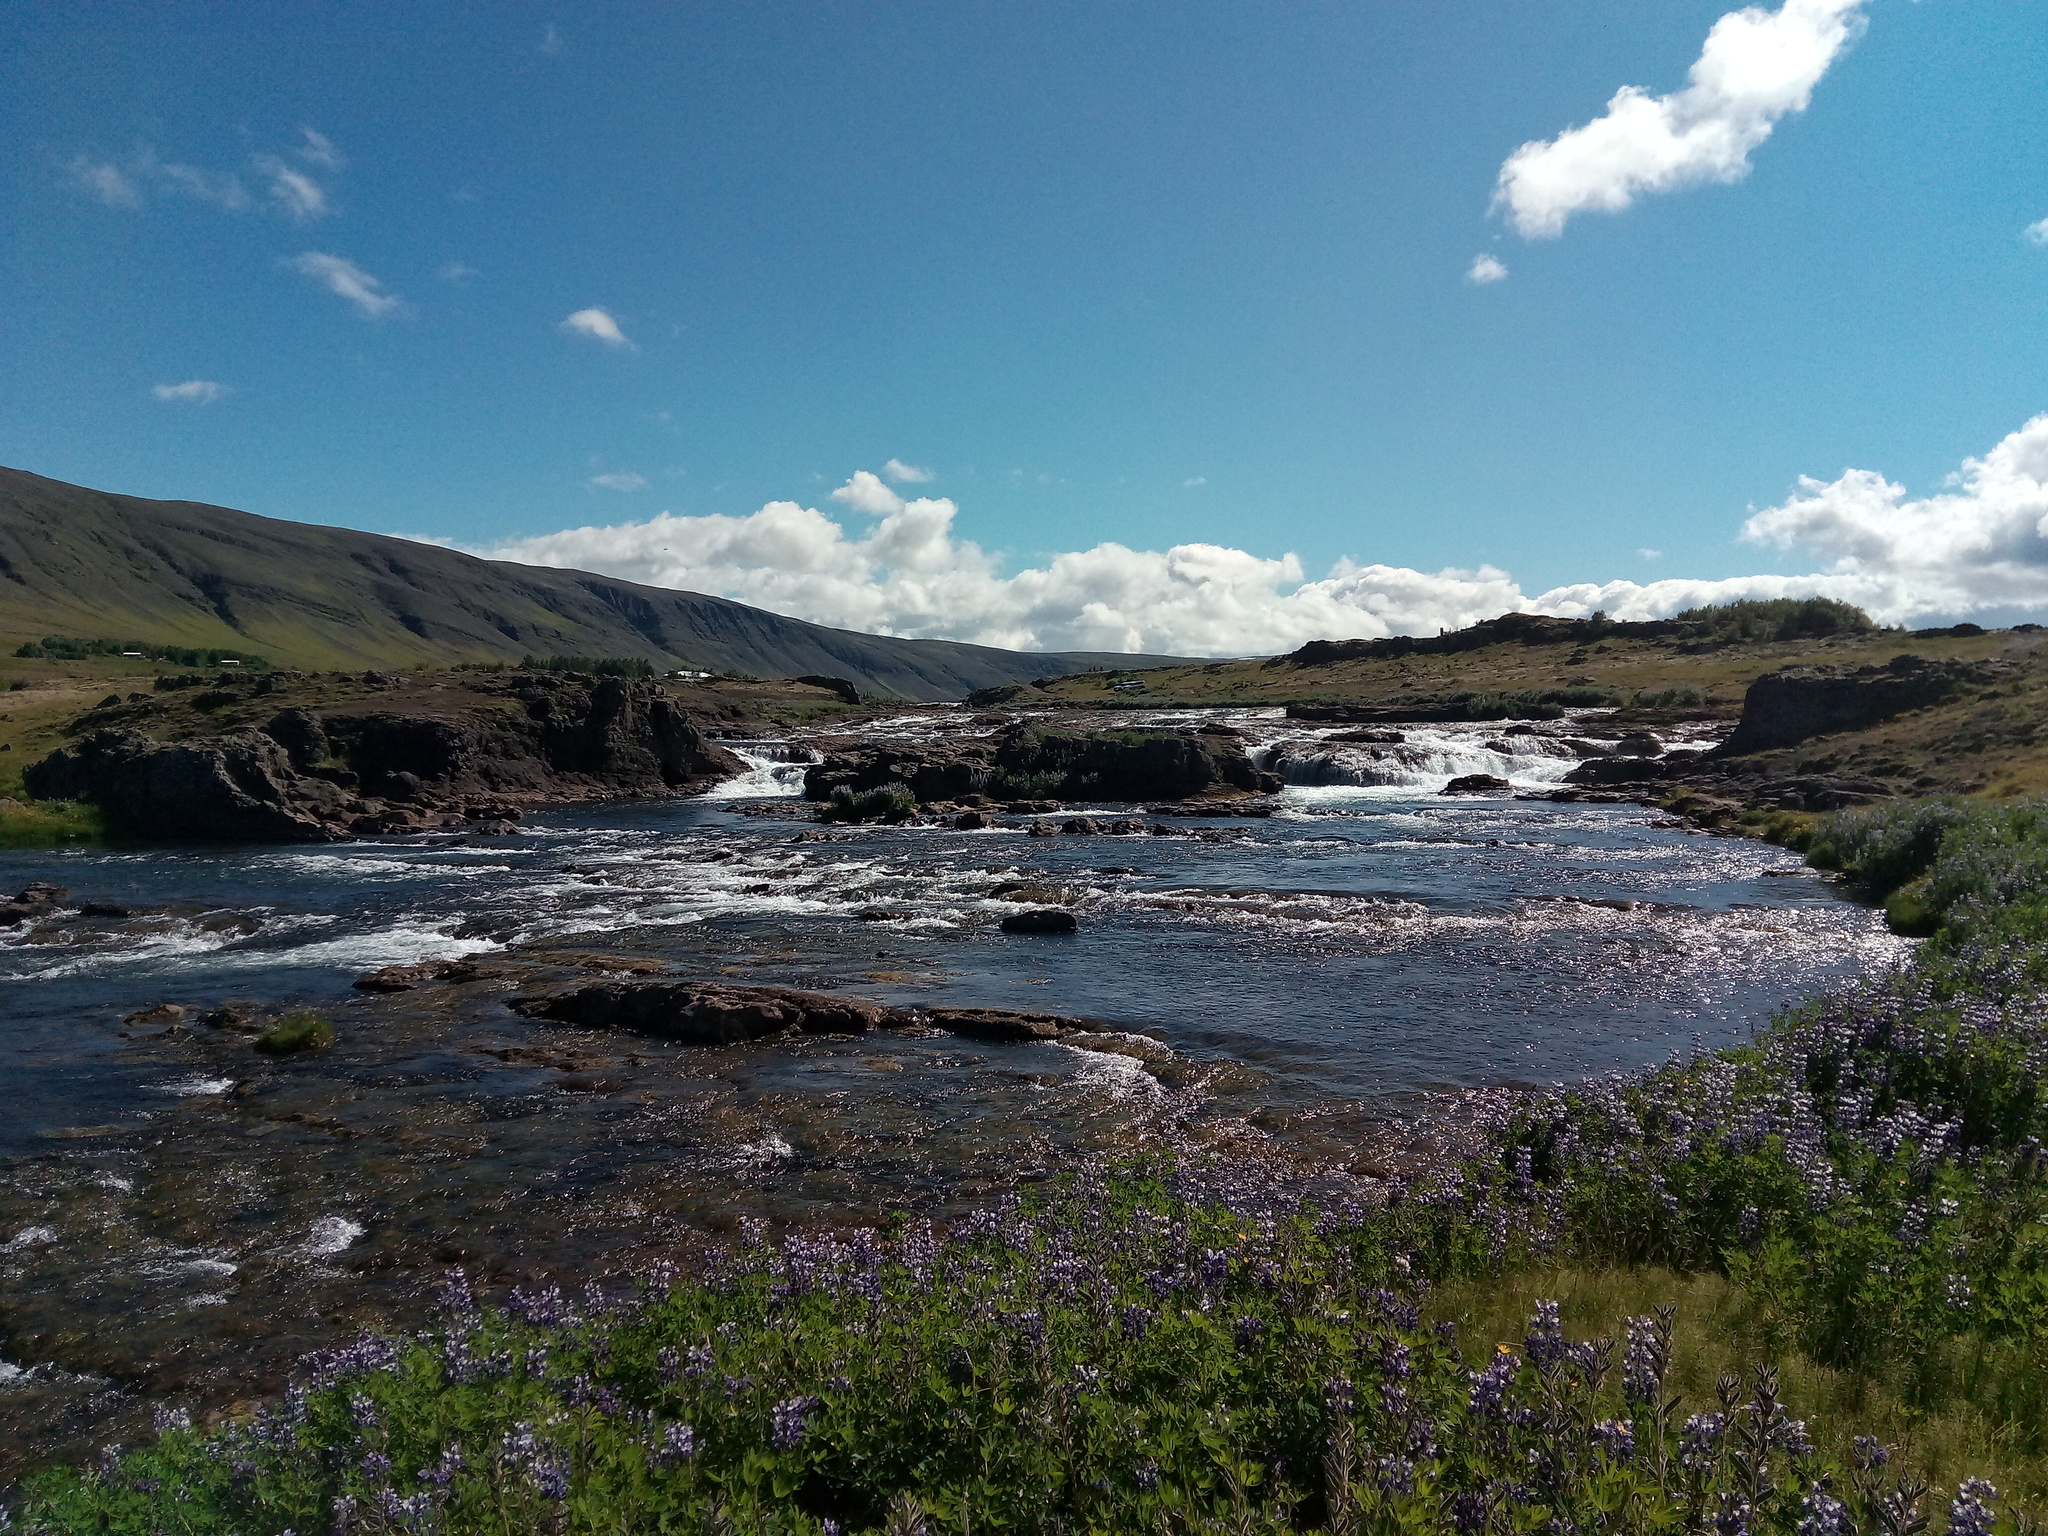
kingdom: Plantae
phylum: Tracheophyta
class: Magnoliopsida
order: Fabales
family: Fabaceae
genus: Lupinus
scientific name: Lupinus nootkatensis
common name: Nootka lupine
